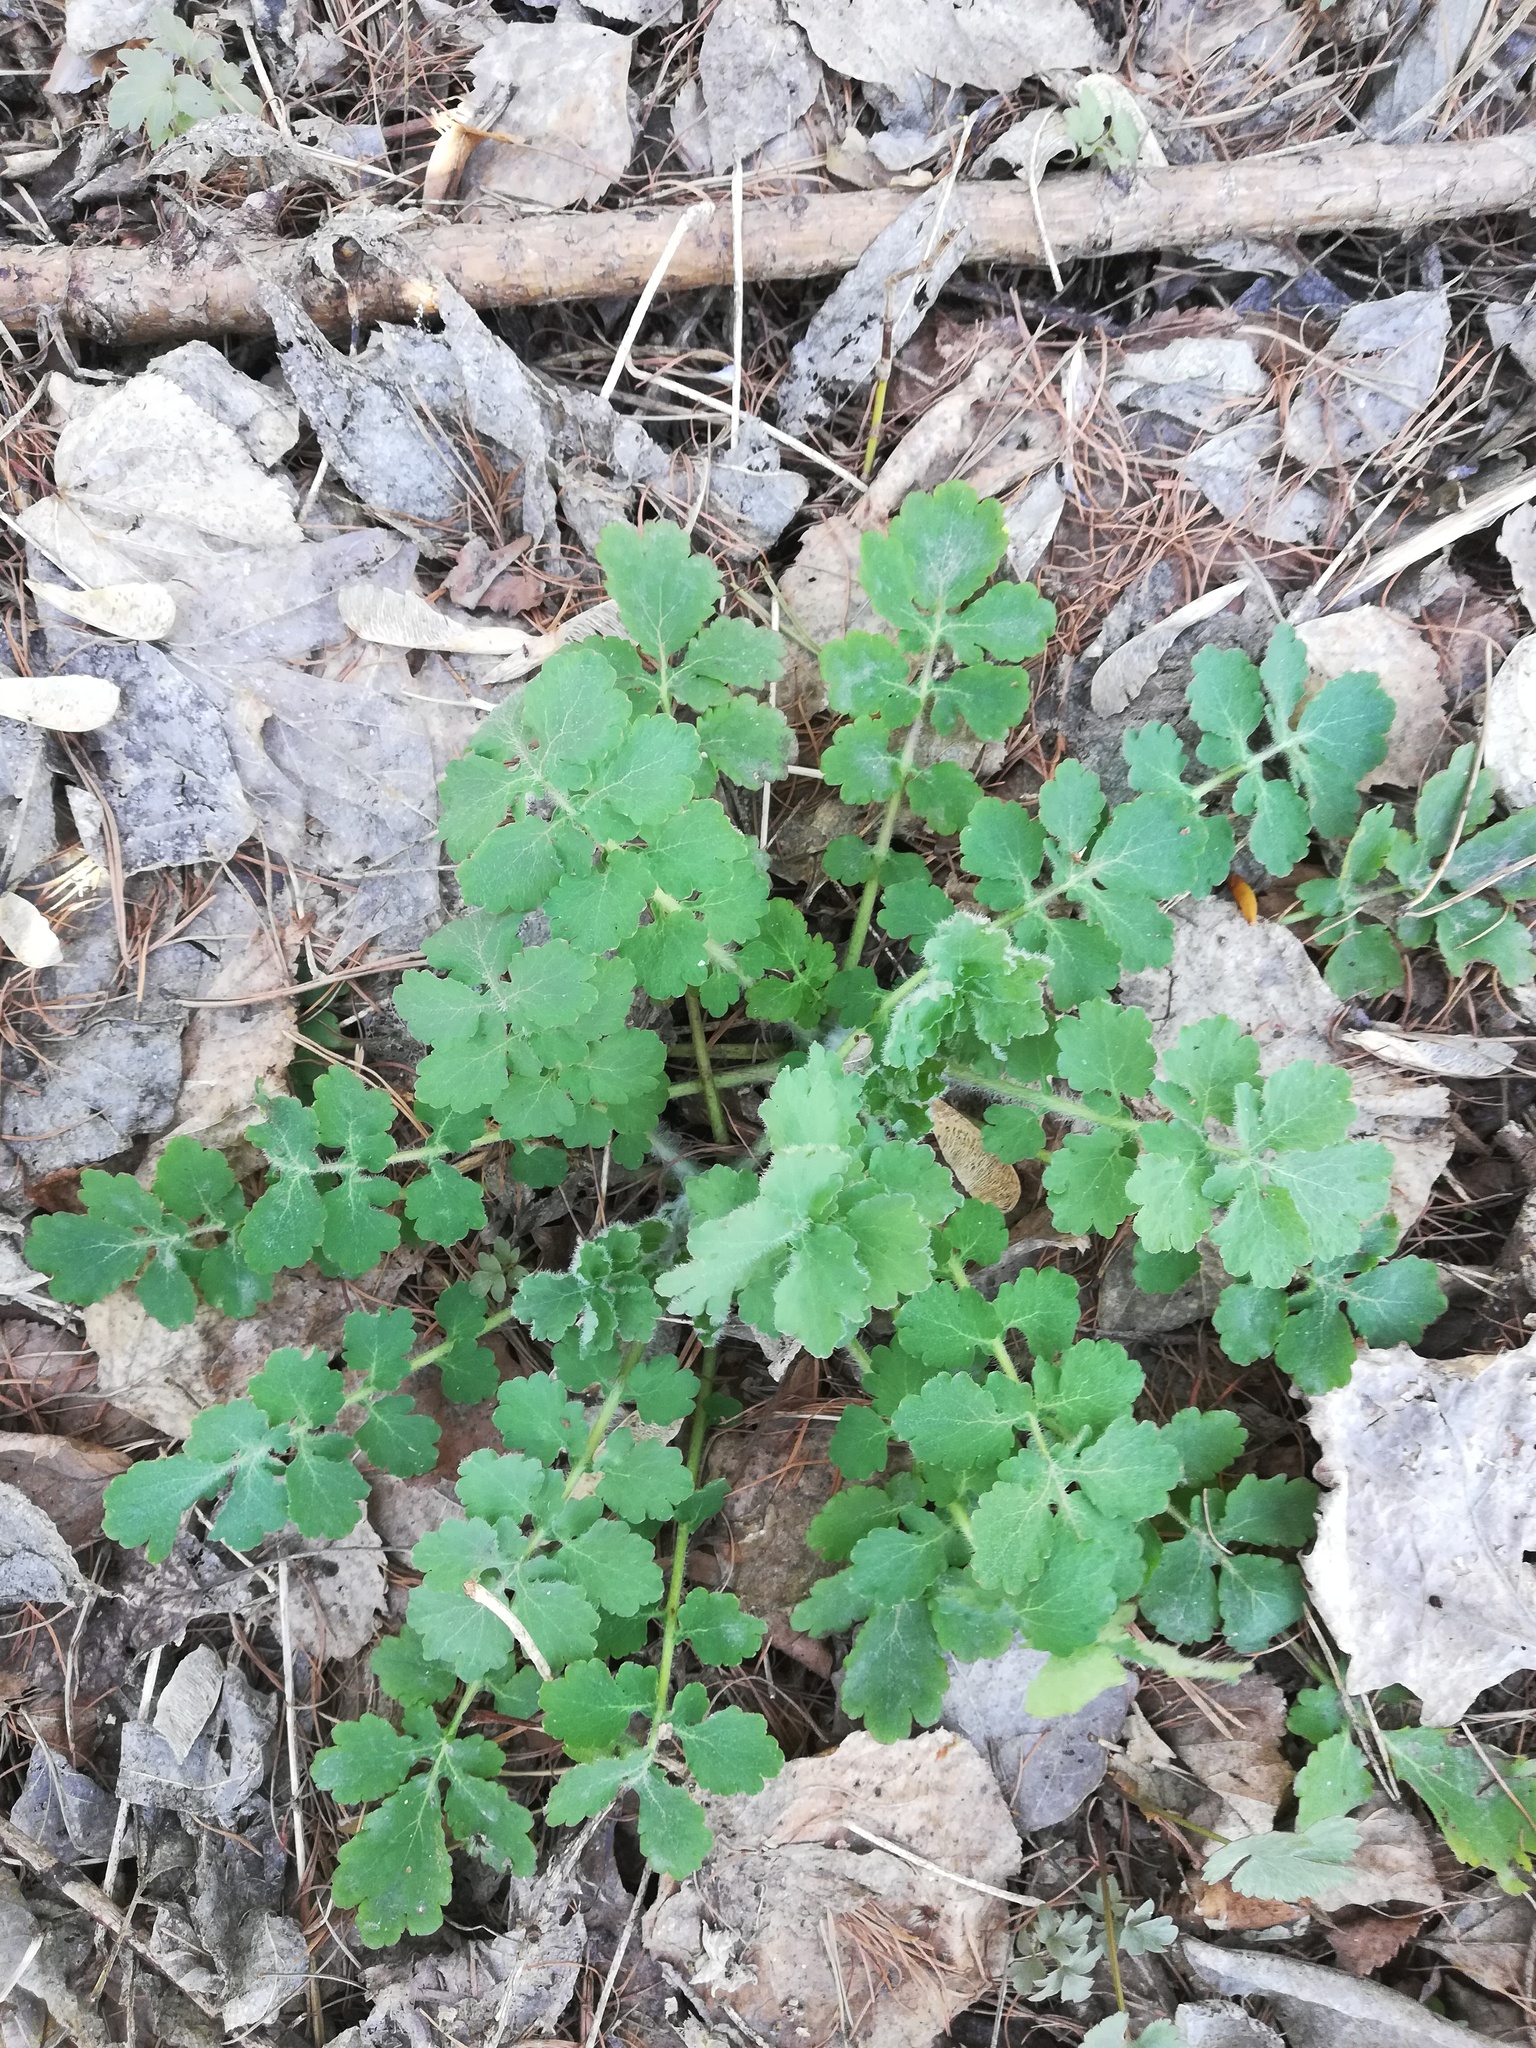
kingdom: Plantae
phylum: Tracheophyta
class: Magnoliopsida
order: Ranunculales
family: Papaveraceae
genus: Chelidonium
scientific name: Chelidonium majus
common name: Greater celandine
